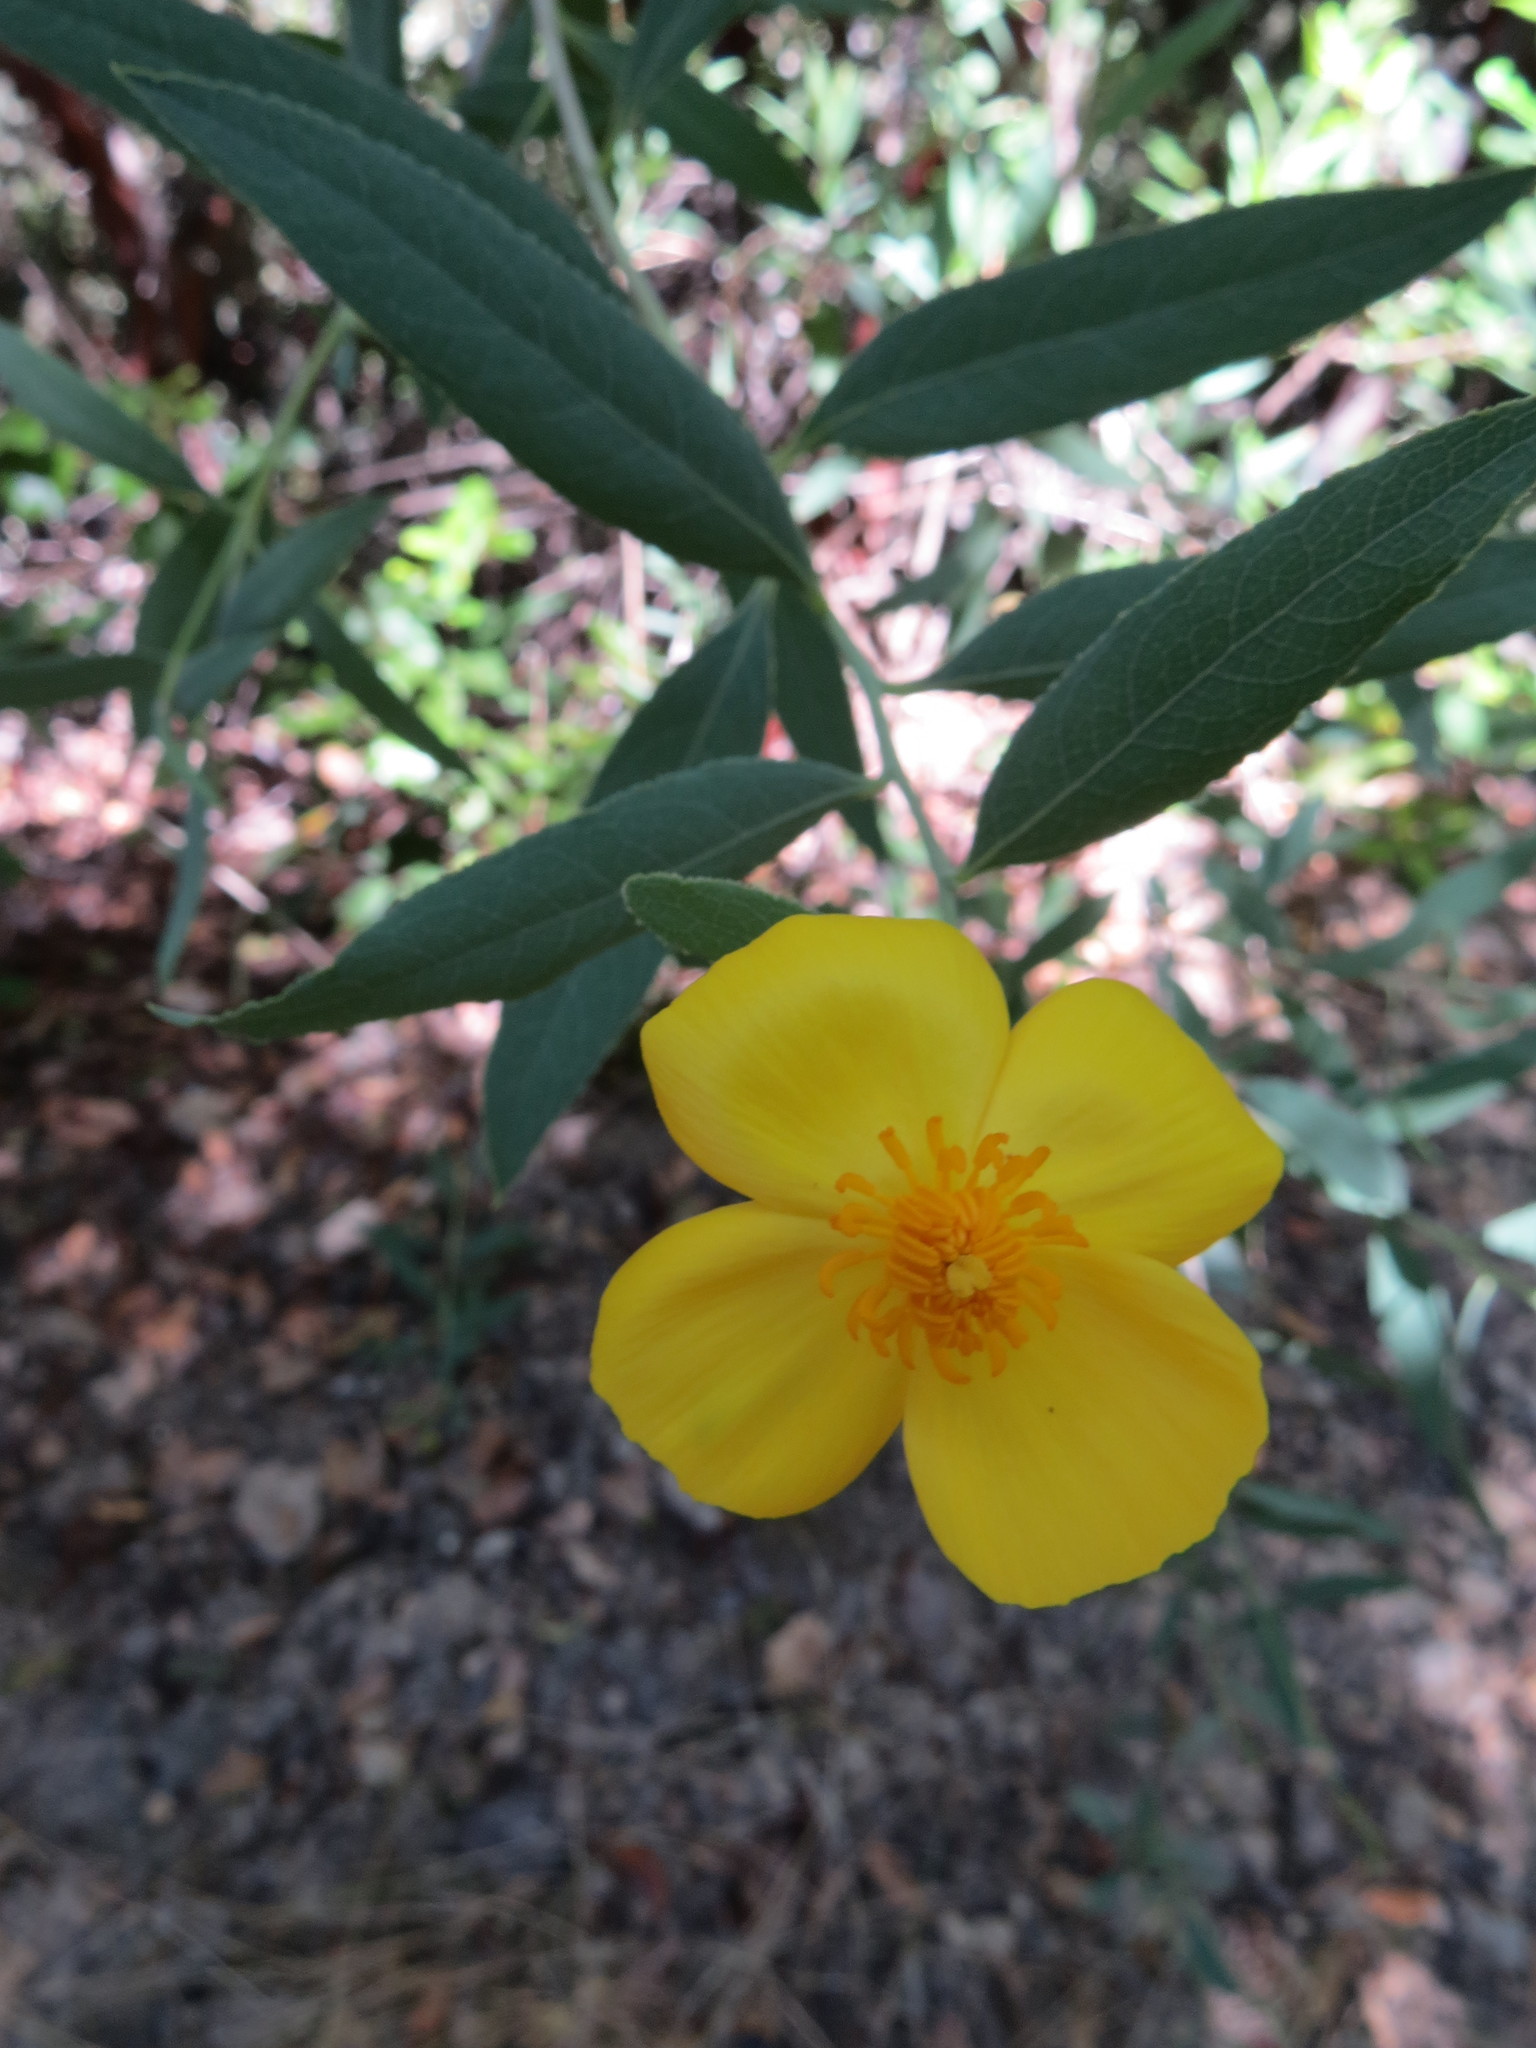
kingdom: Plantae
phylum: Tracheophyta
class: Magnoliopsida
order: Ranunculales
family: Papaveraceae
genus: Dendromecon
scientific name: Dendromecon rigida
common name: Tree poppy
